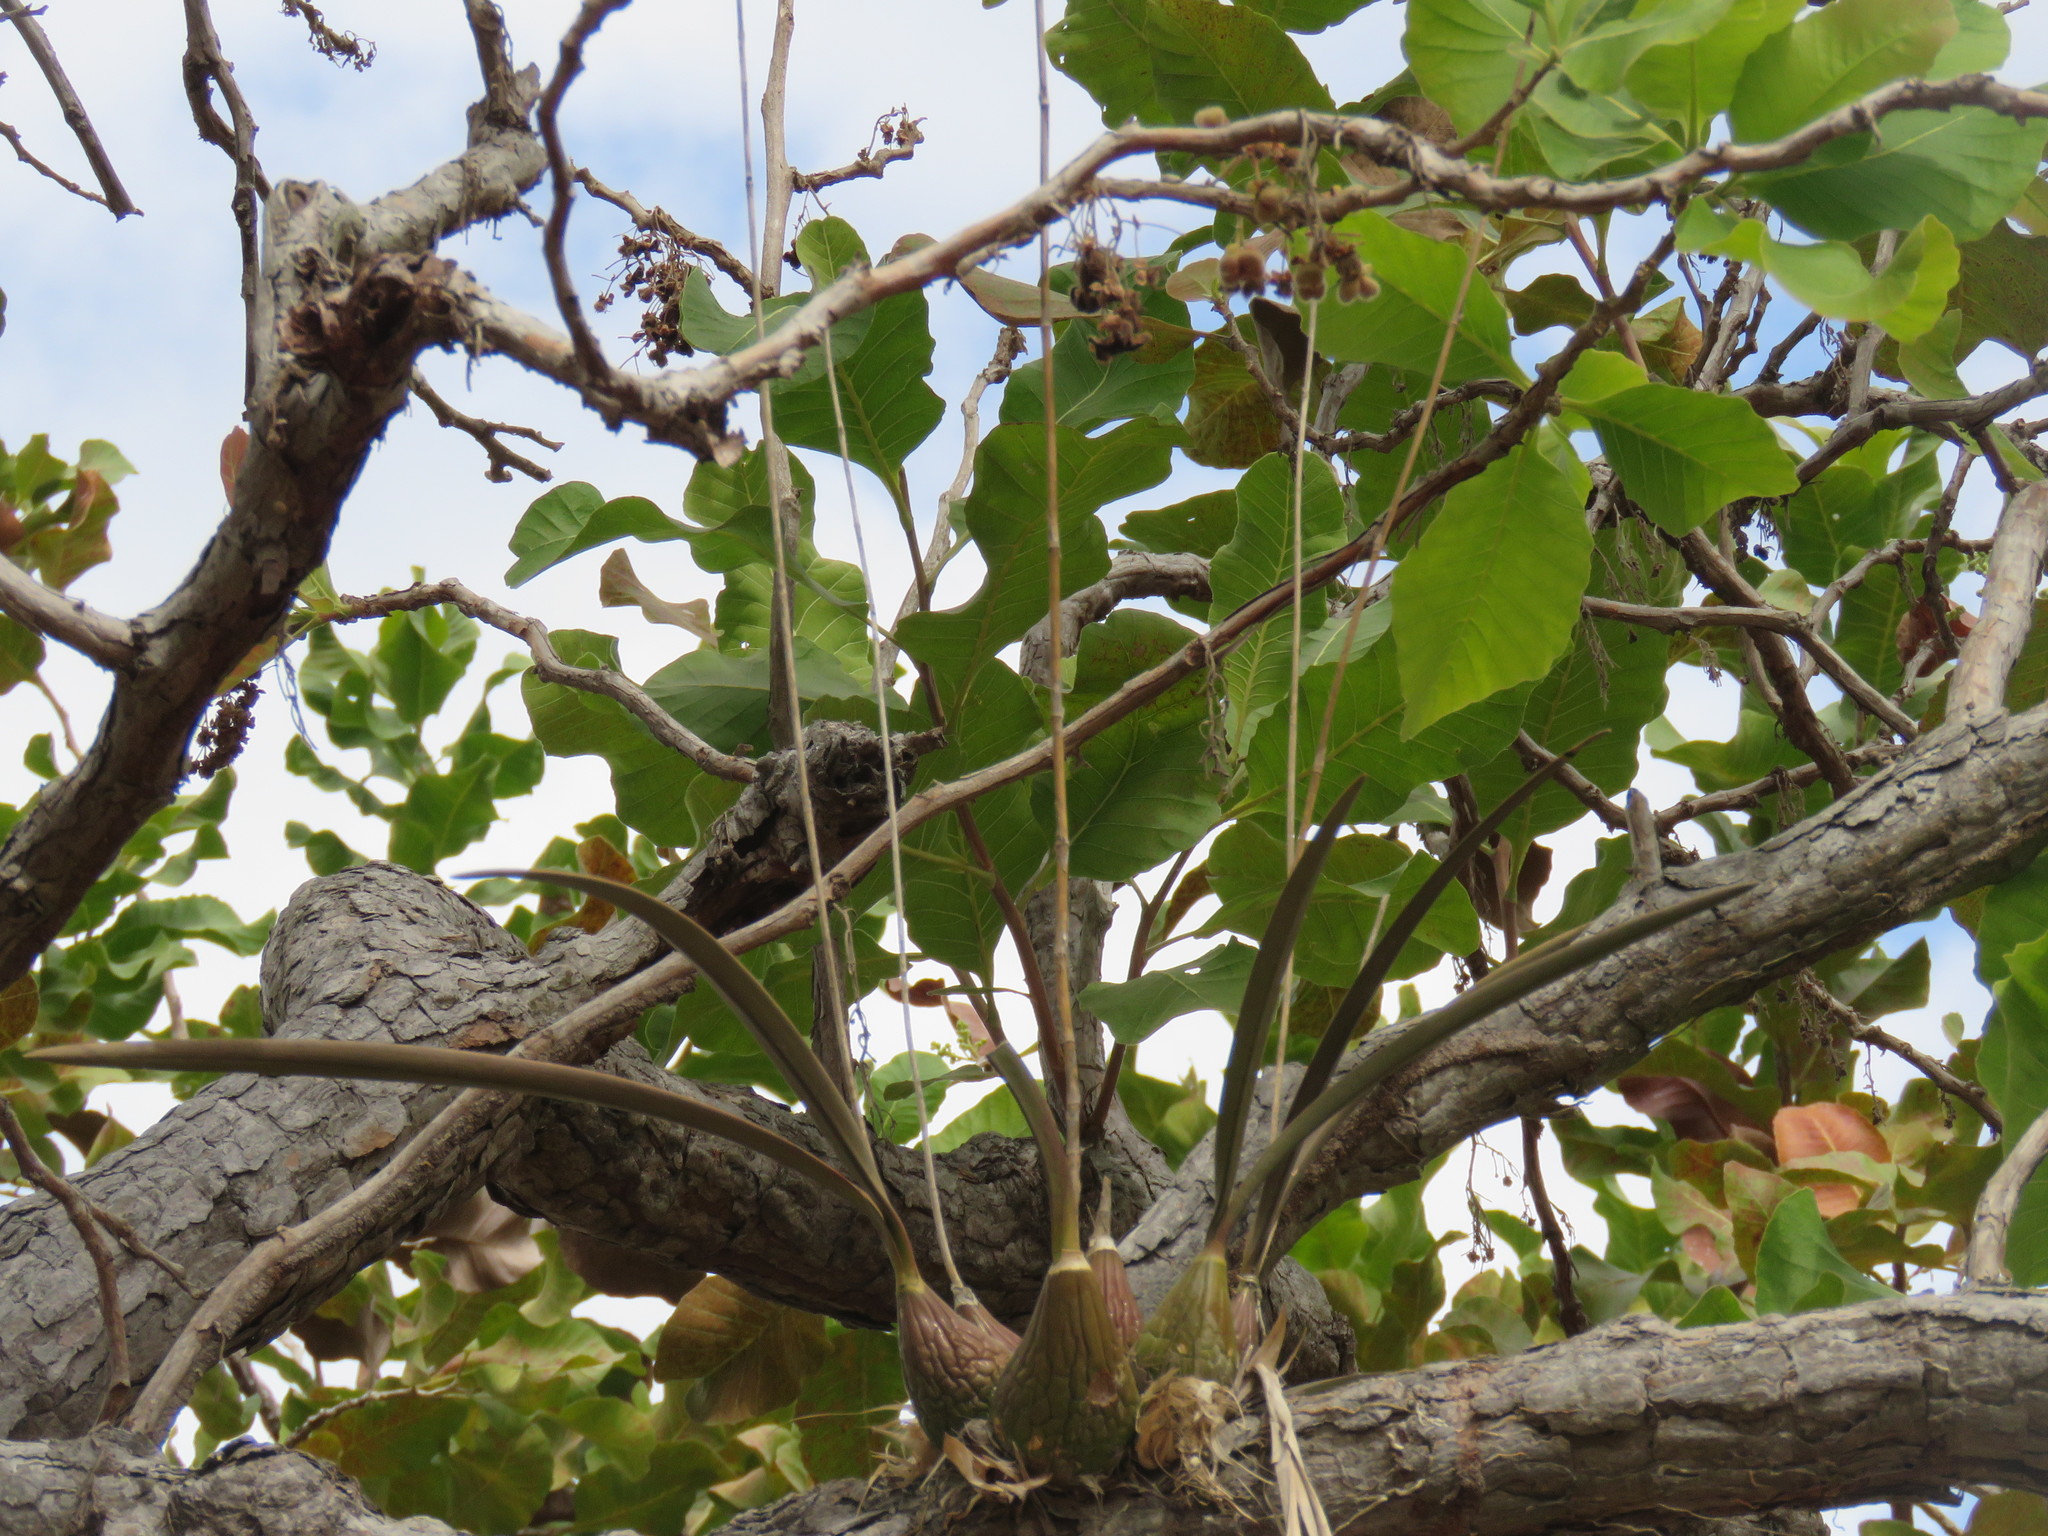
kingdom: Plantae
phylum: Tracheophyta
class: Liliopsida
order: Asparagales
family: Orchidaceae
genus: Encyclia
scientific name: Encyclia trachycarpa
